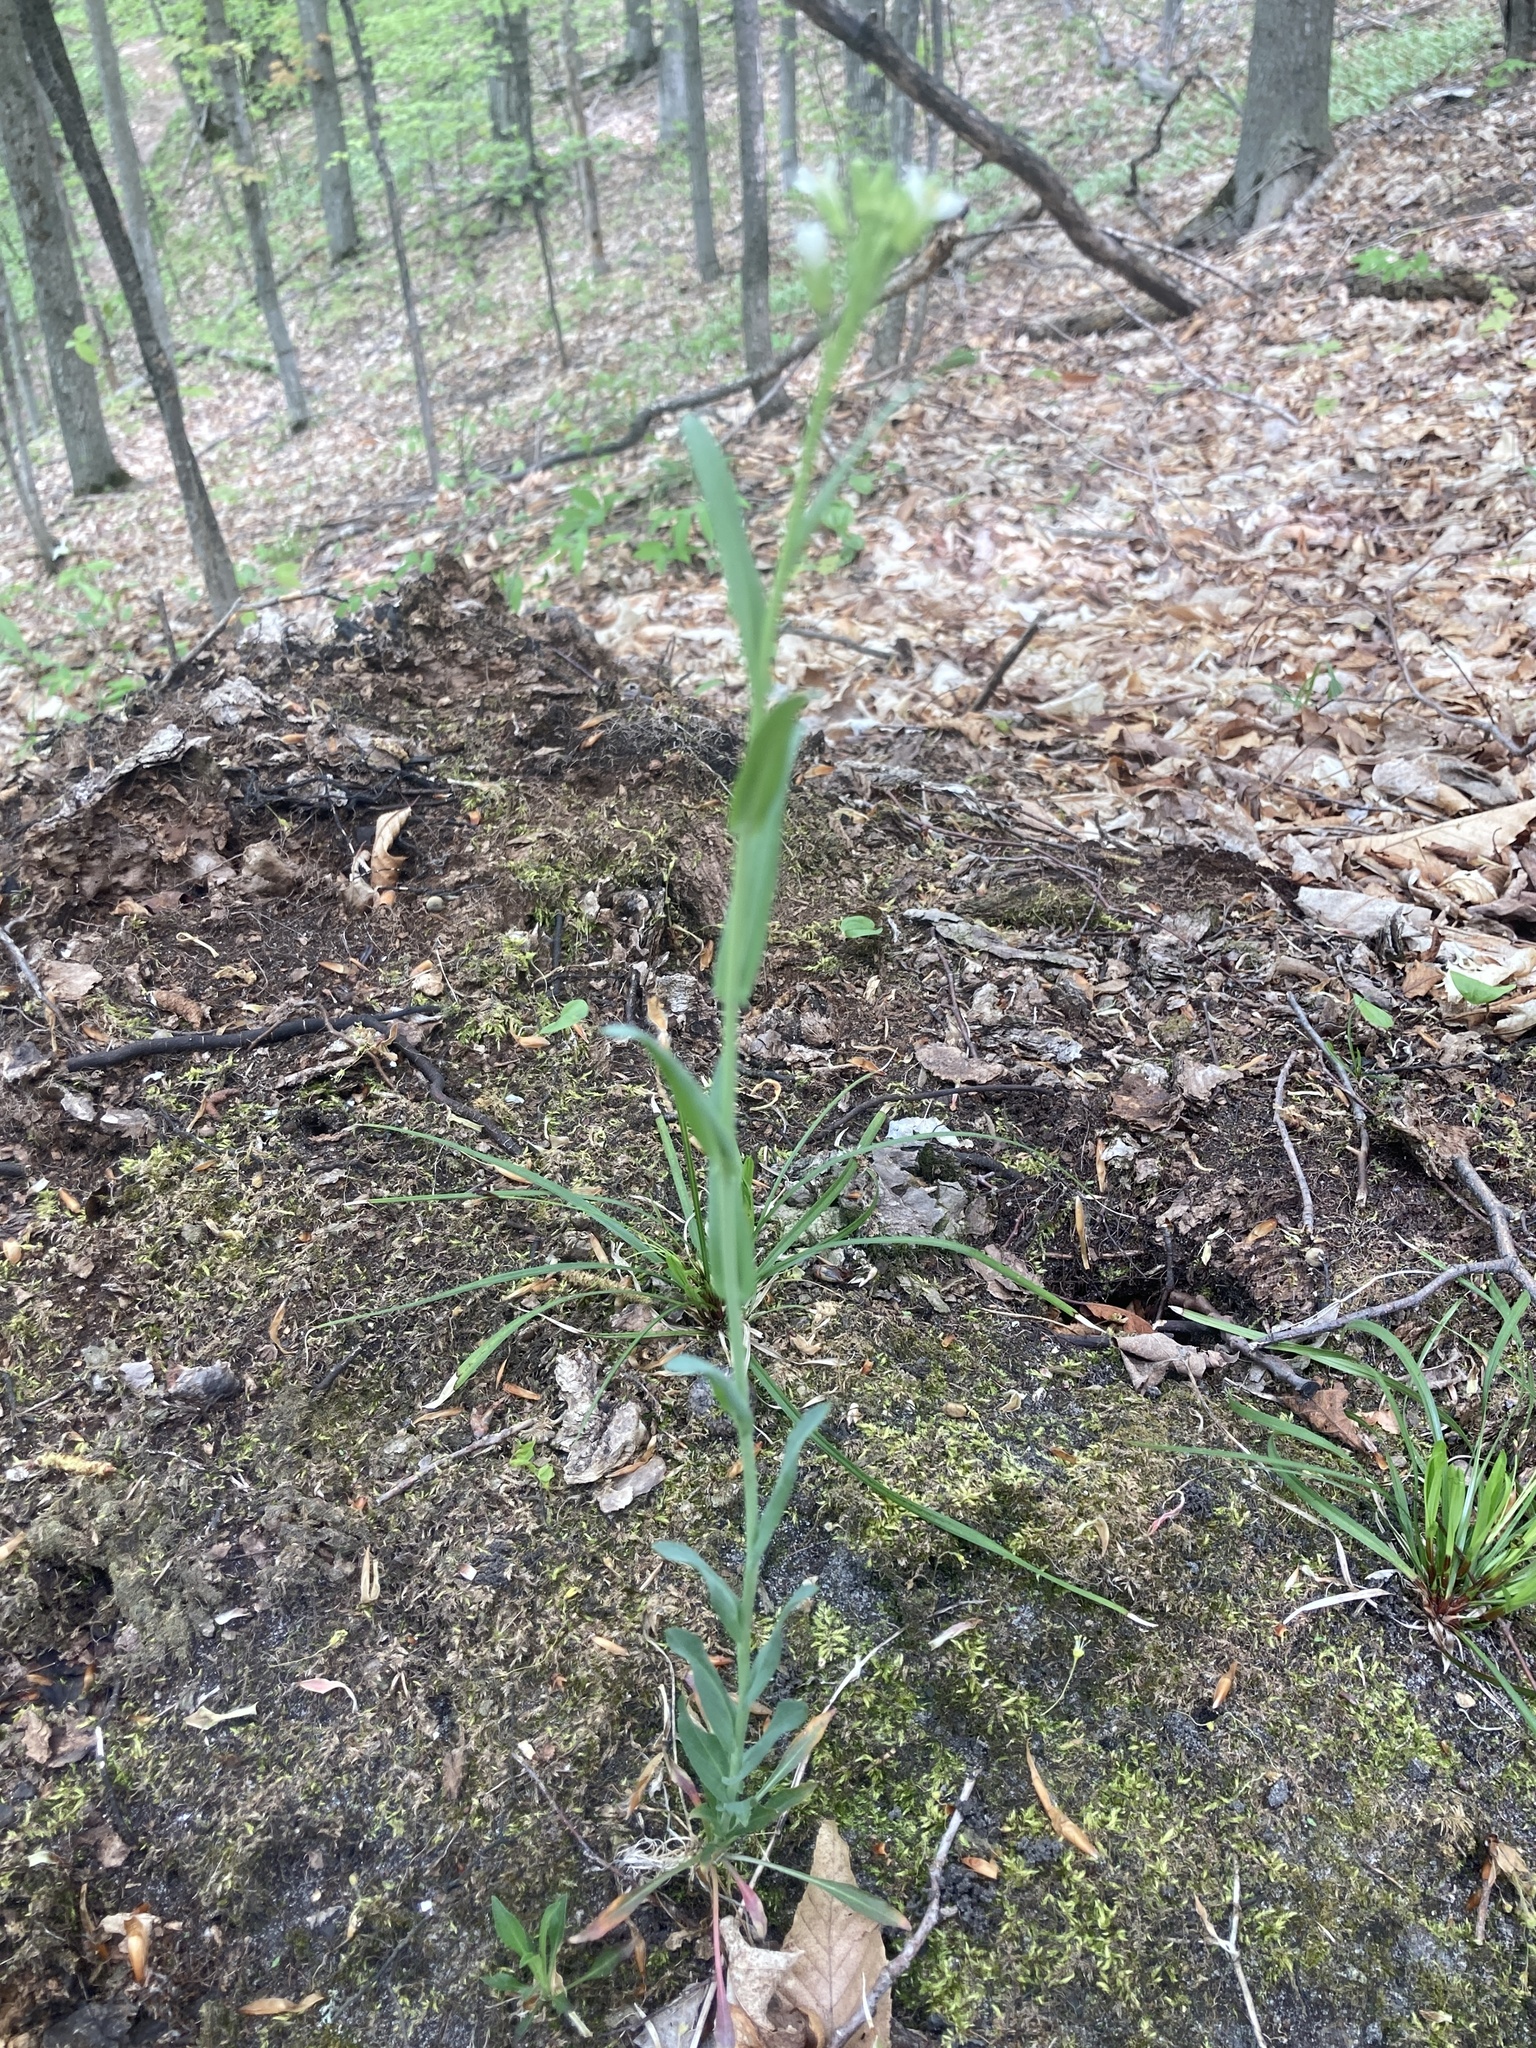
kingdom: Plantae
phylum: Tracheophyta
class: Magnoliopsida
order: Brassicales
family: Brassicaceae
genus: Turritis
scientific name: Turritis glabra
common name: Tower rockcress
